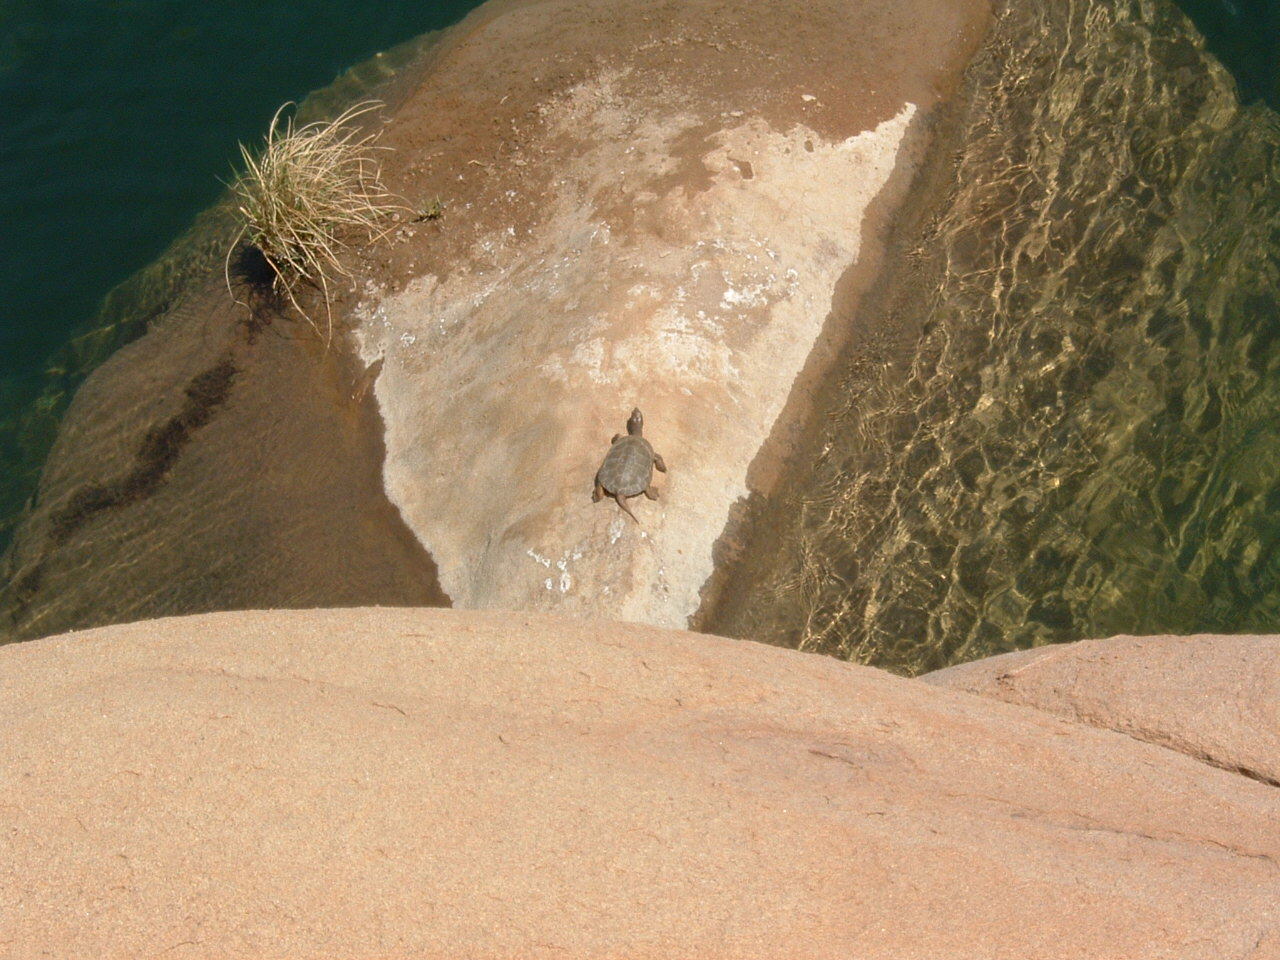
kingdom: Animalia
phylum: Chordata
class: Testudines
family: Emydidae
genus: Actinemys
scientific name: Actinemys marmorata
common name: Western pond turtle
